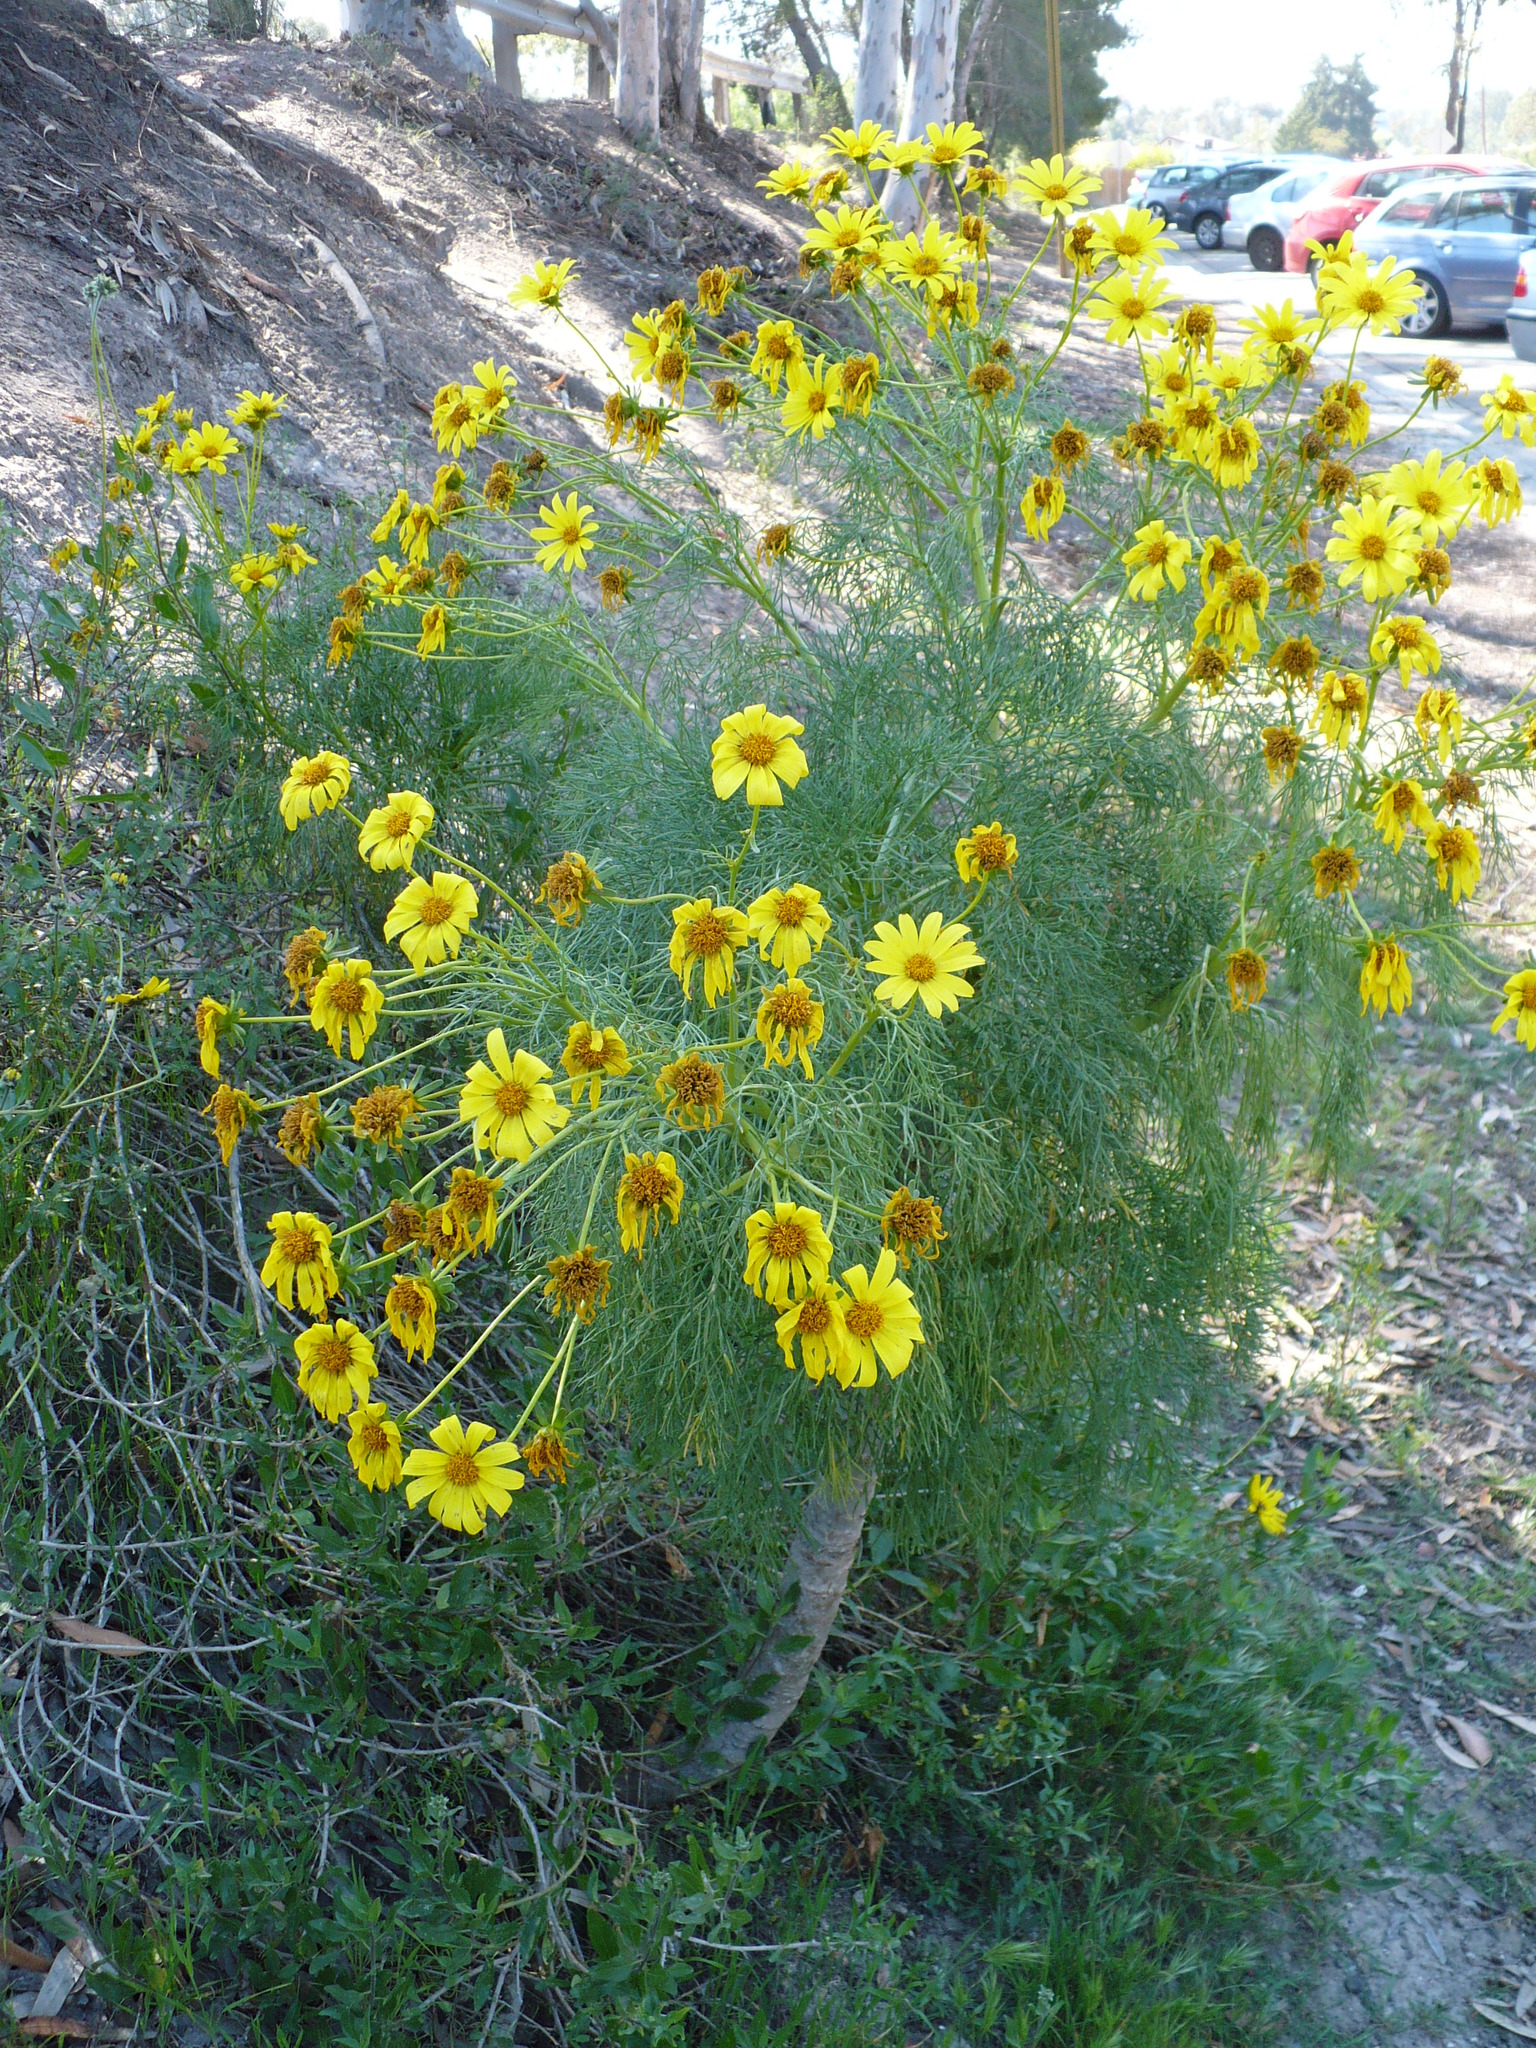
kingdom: Plantae
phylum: Tracheophyta
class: Magnoliopsida
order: Asterales
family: Asteraceae
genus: Coreopsis
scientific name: Coreopsis gigantea
